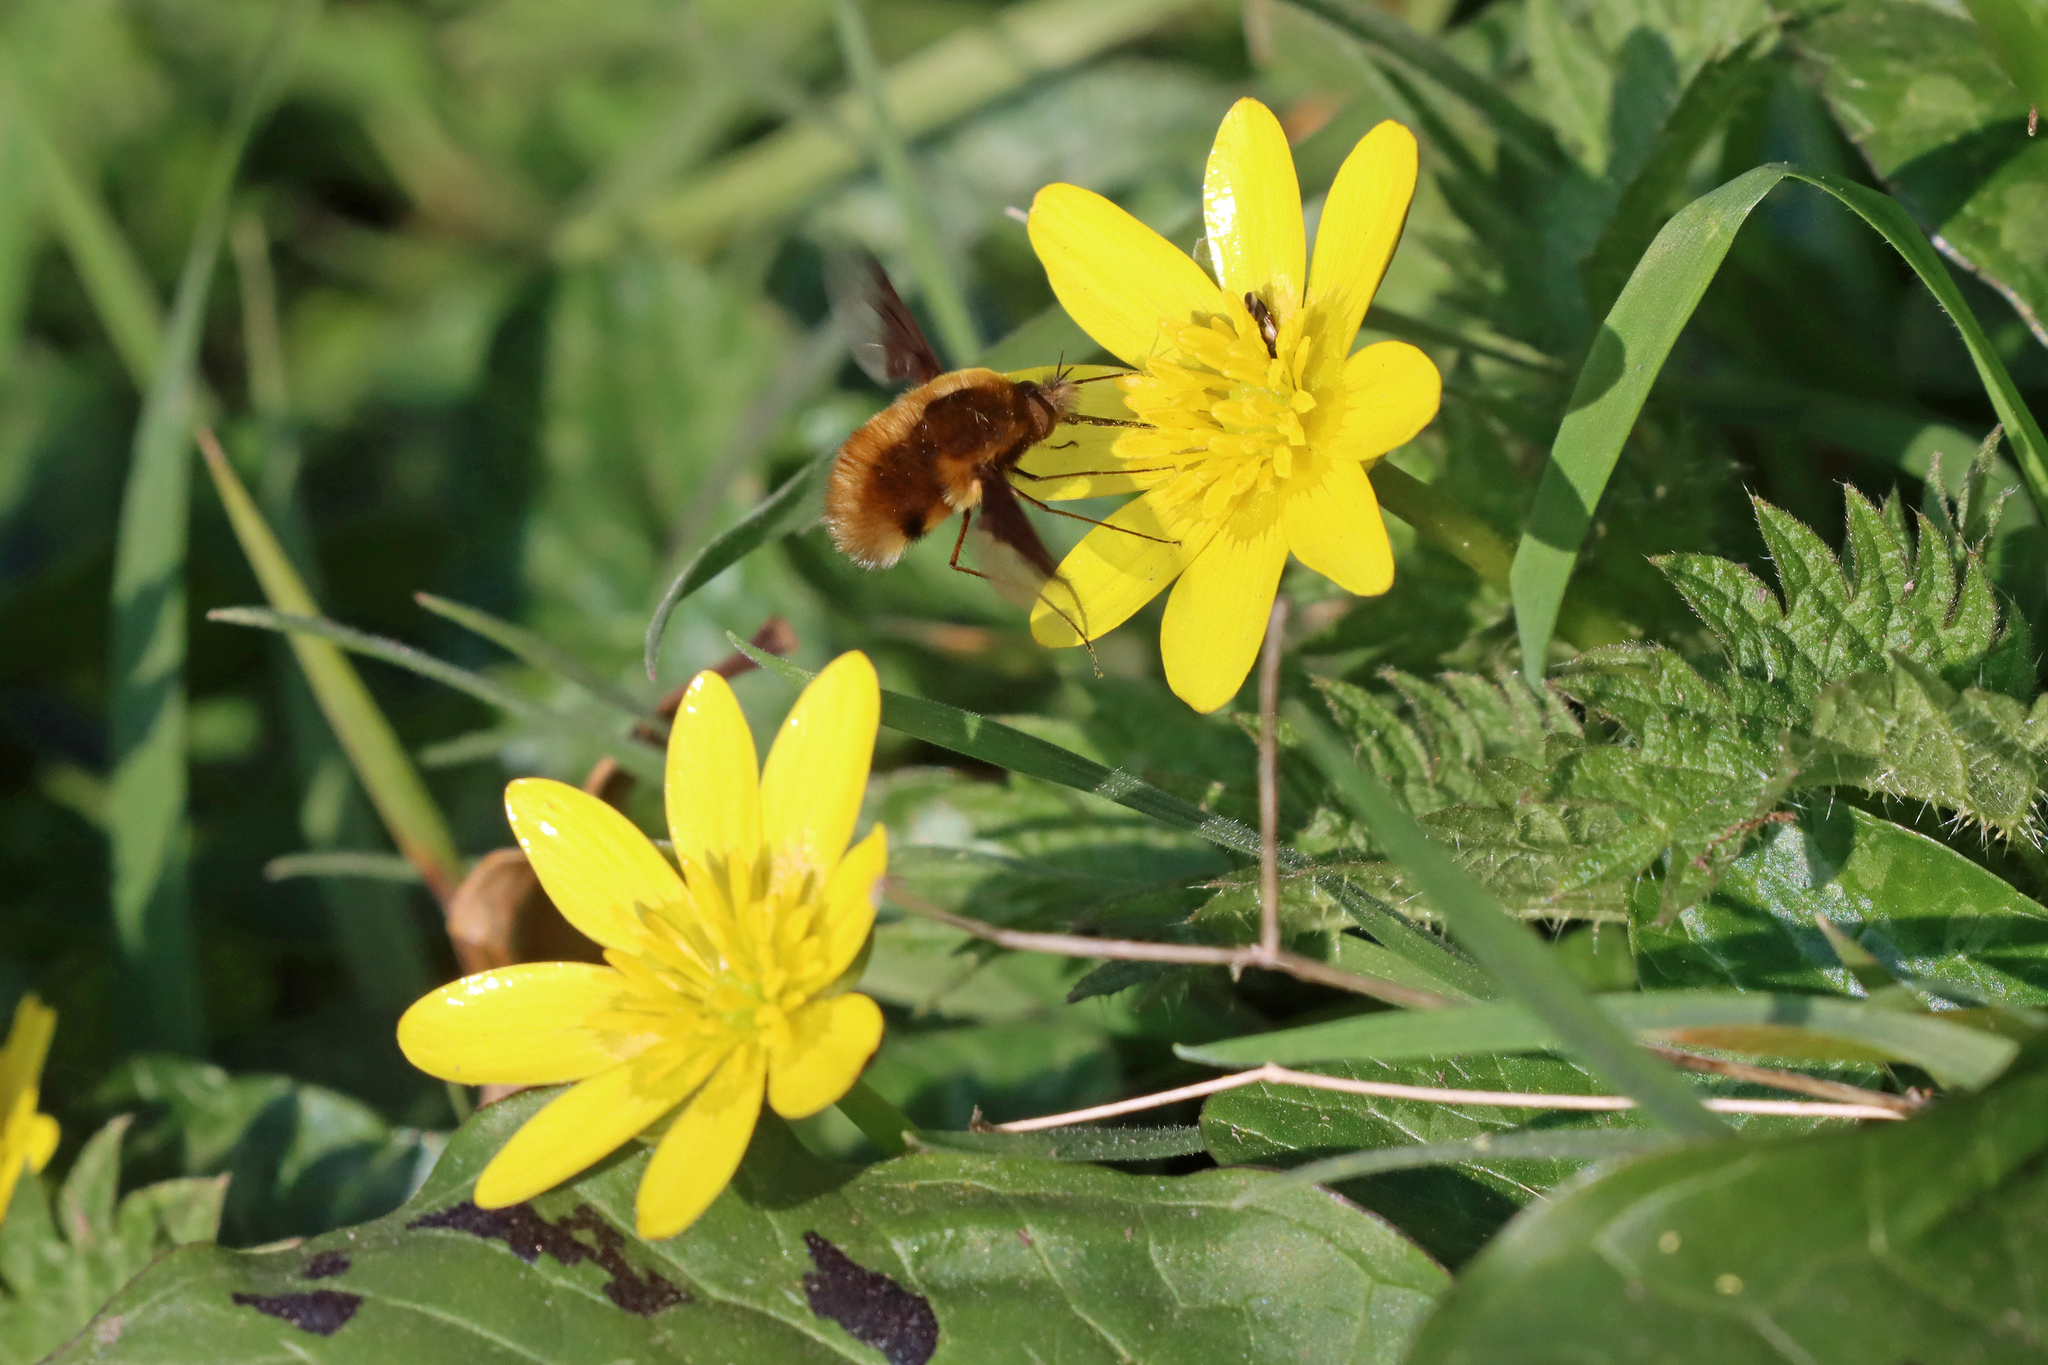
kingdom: Animalia
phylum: Arthropoda
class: Insecta
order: Diptera
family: Bombyliidae
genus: Bombylius
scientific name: Bombylius major
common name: Bee fly
